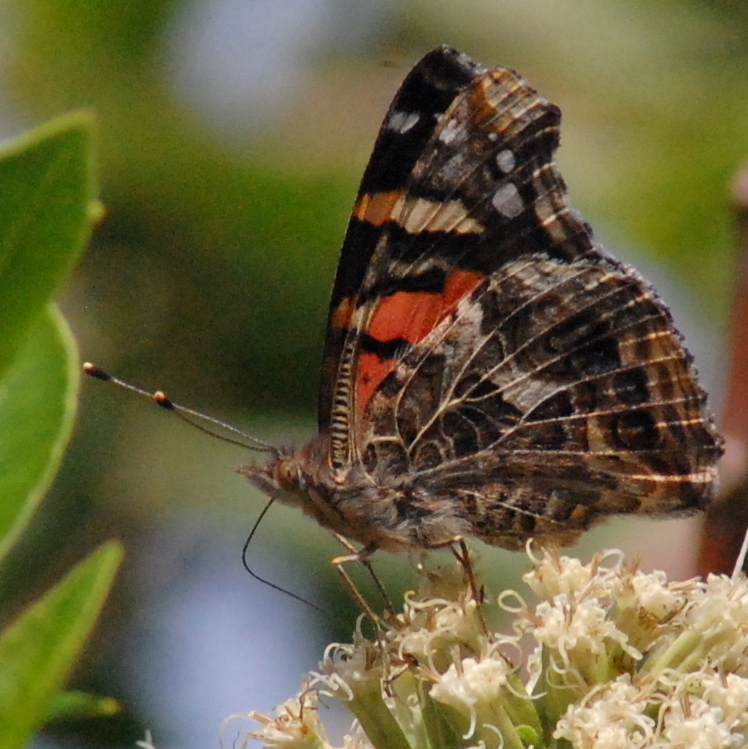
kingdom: Animalia
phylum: Arthropoda
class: Insecta
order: Lepidoptera
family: Nymphalidae
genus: Vanessa
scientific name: Vanessa carye
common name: Subtropical lady
